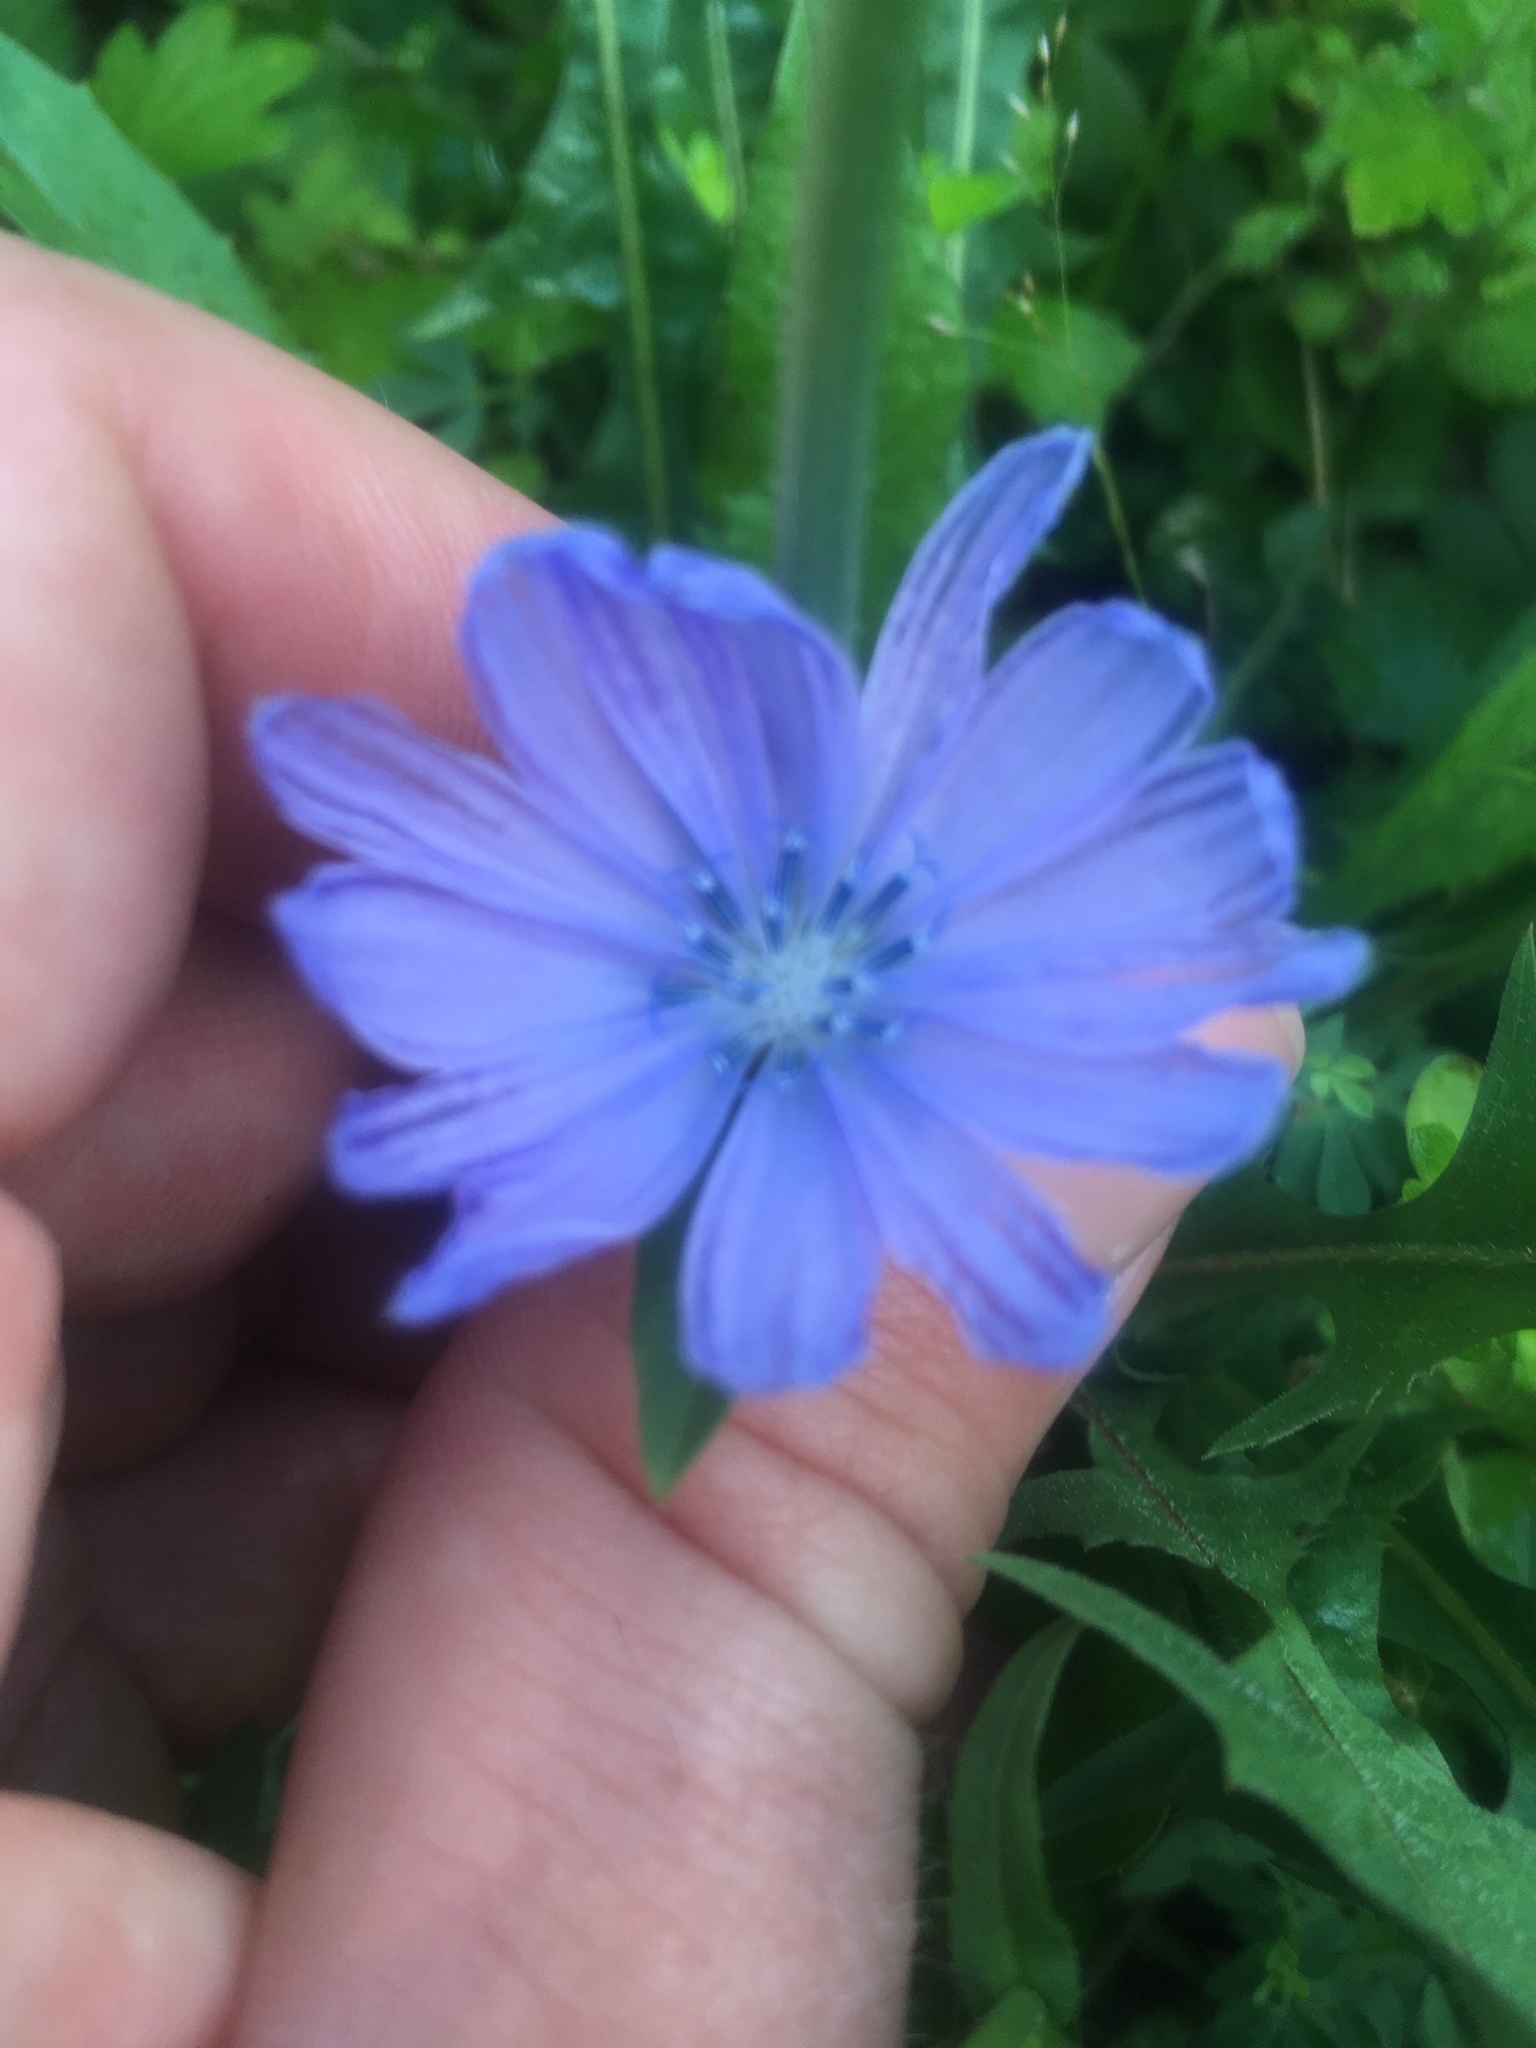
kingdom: Plantae
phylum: Tracheophyta
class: Magnoliopsida
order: Asterales
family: Asteraceae
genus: Cichorium
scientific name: Cichorium intybus
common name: Chicory
